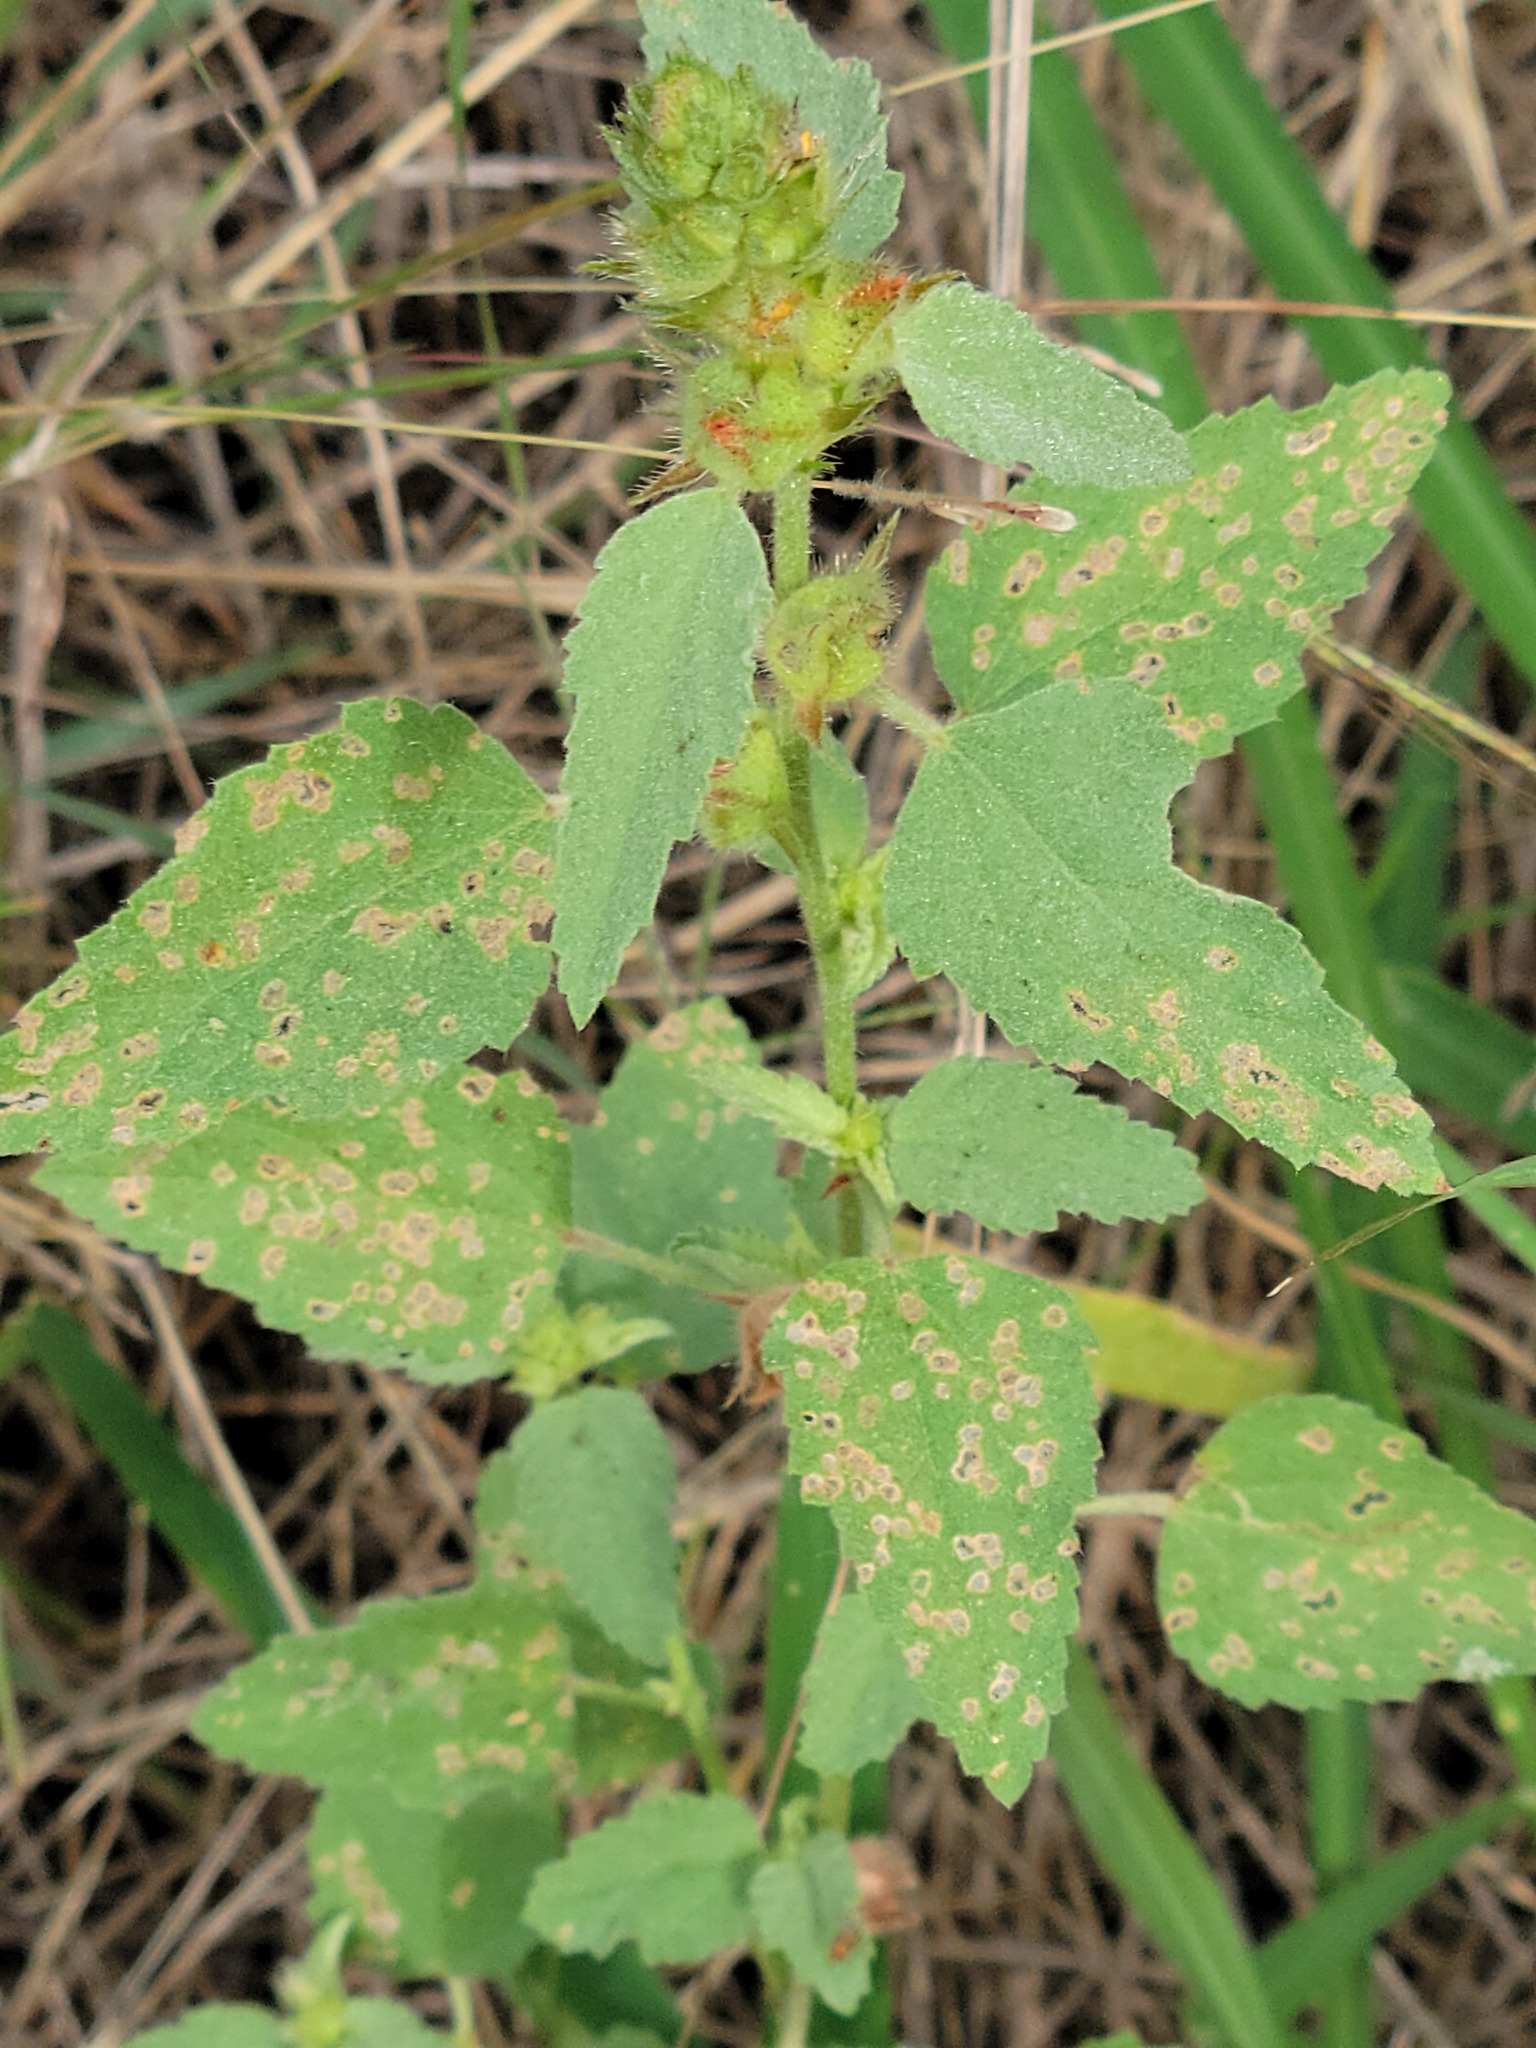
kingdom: Plantae
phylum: Tracheophyta
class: Magnoliopsida
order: Malvales
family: Malvaceae
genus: Malvastrum
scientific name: Malvastrum americanum
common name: Spiked malvastrum
